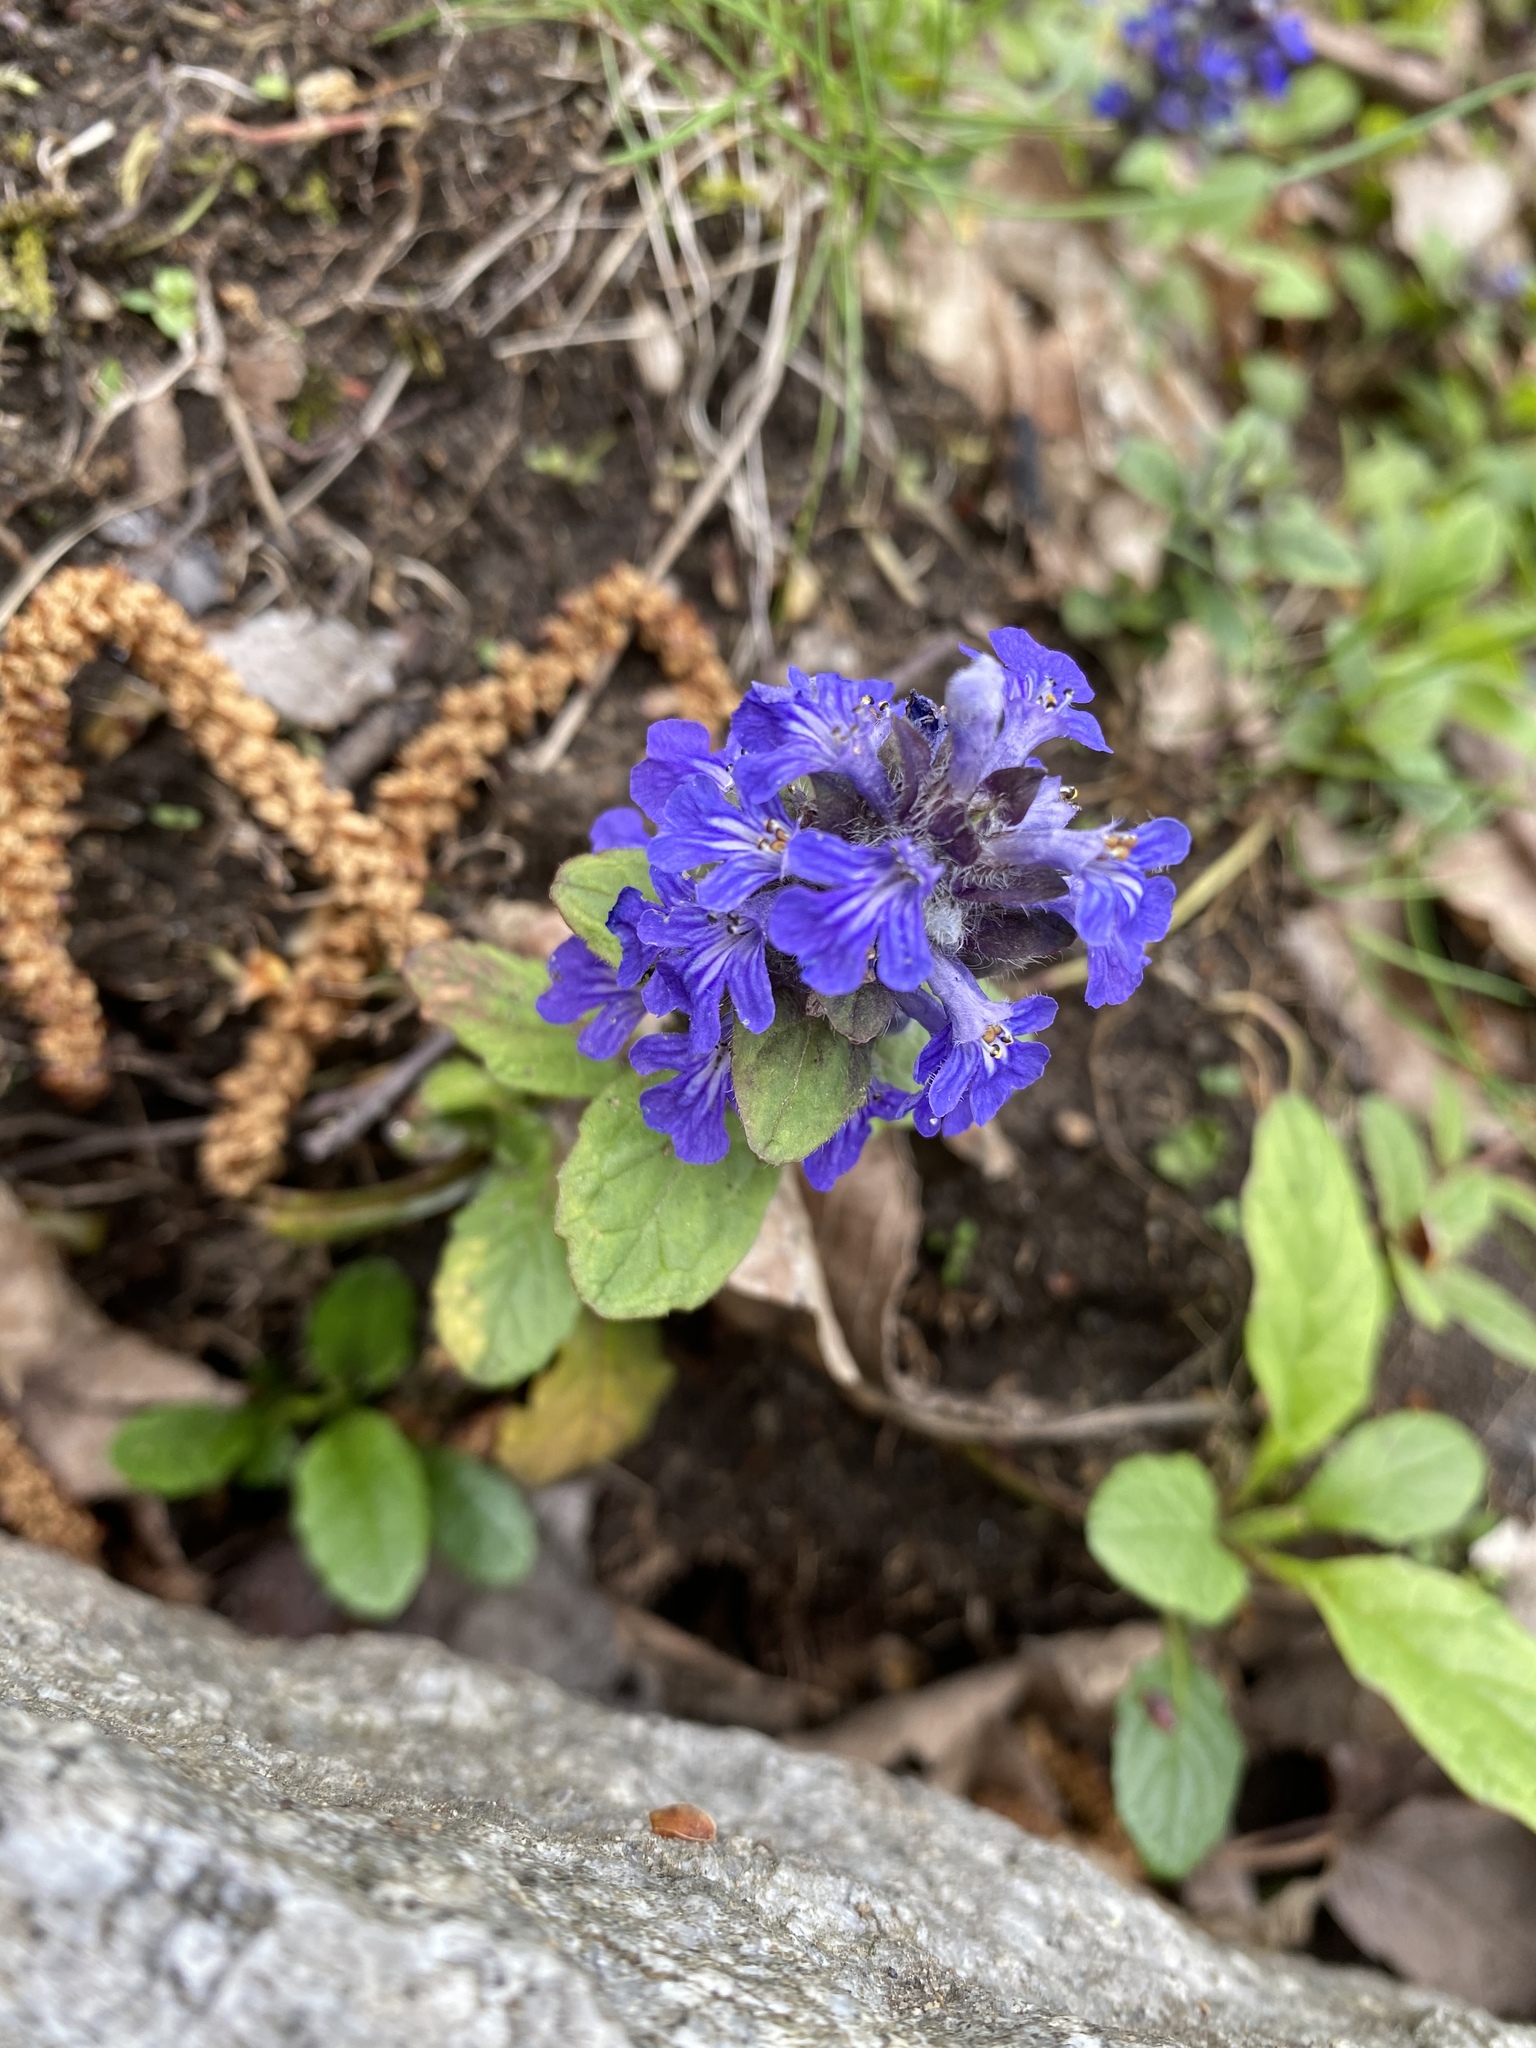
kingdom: Plantae
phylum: Tracheophyta
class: Magnoliopsida
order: Lamiales
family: Lamiaceae
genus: Ajuga
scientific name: Ajuga reptans
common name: Bugle
